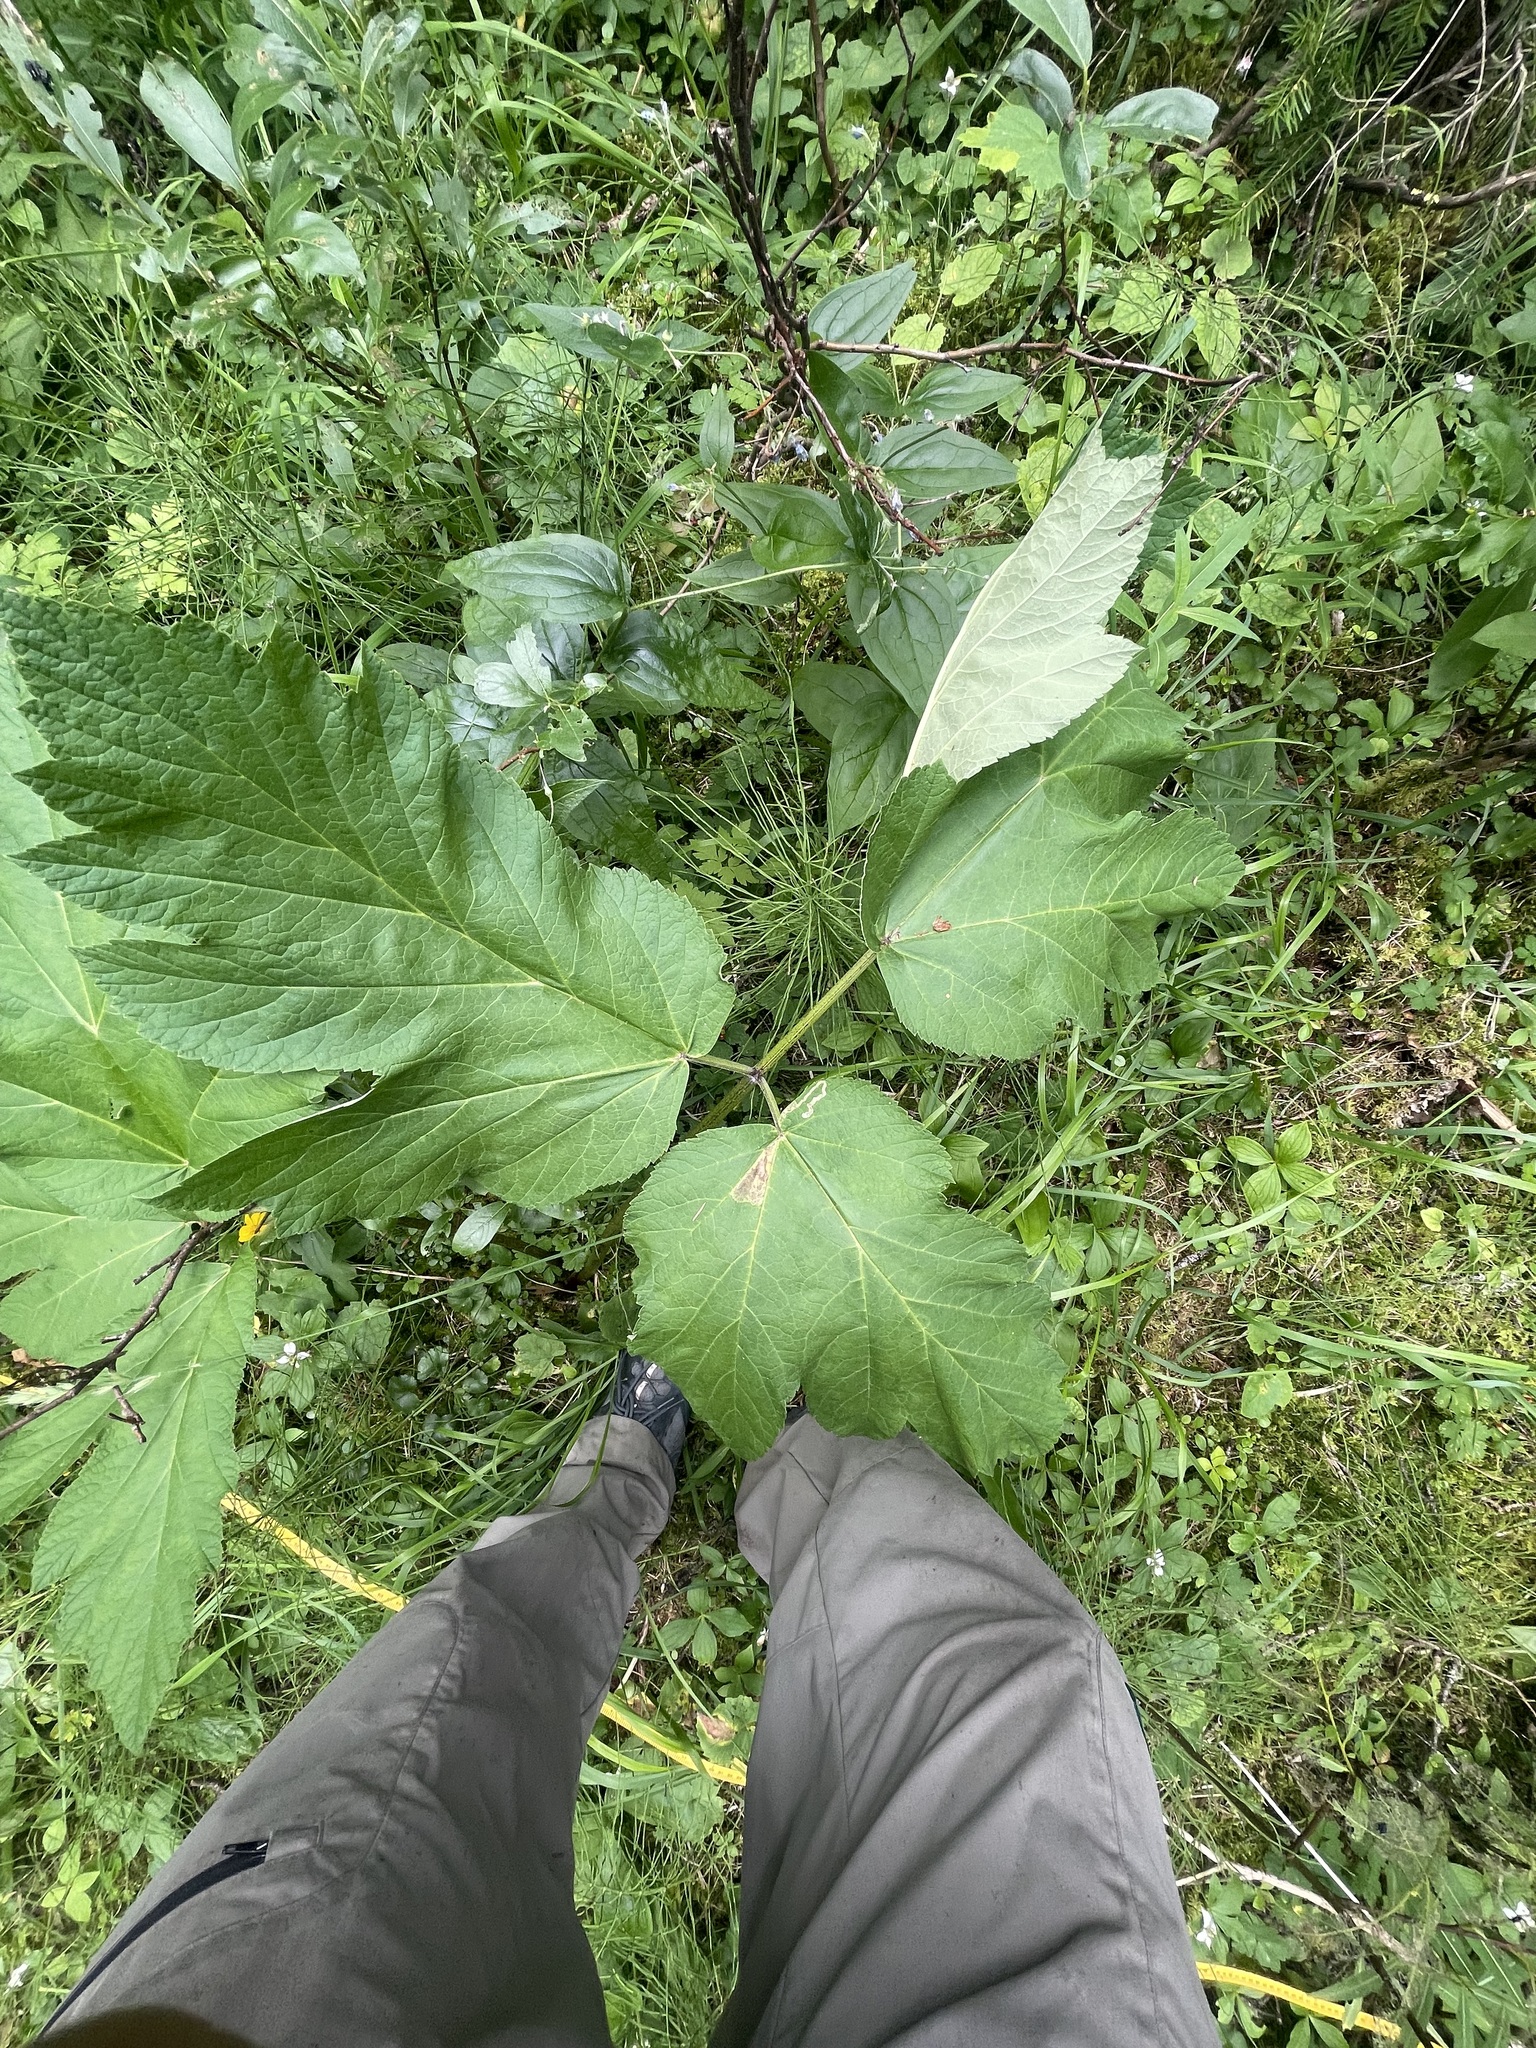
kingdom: Plantae
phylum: Tracheophyta
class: Magnoliopsida
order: Apiales
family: Apiaceae
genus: Heracleum
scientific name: Heracleum maximum
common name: American cow parsnip
